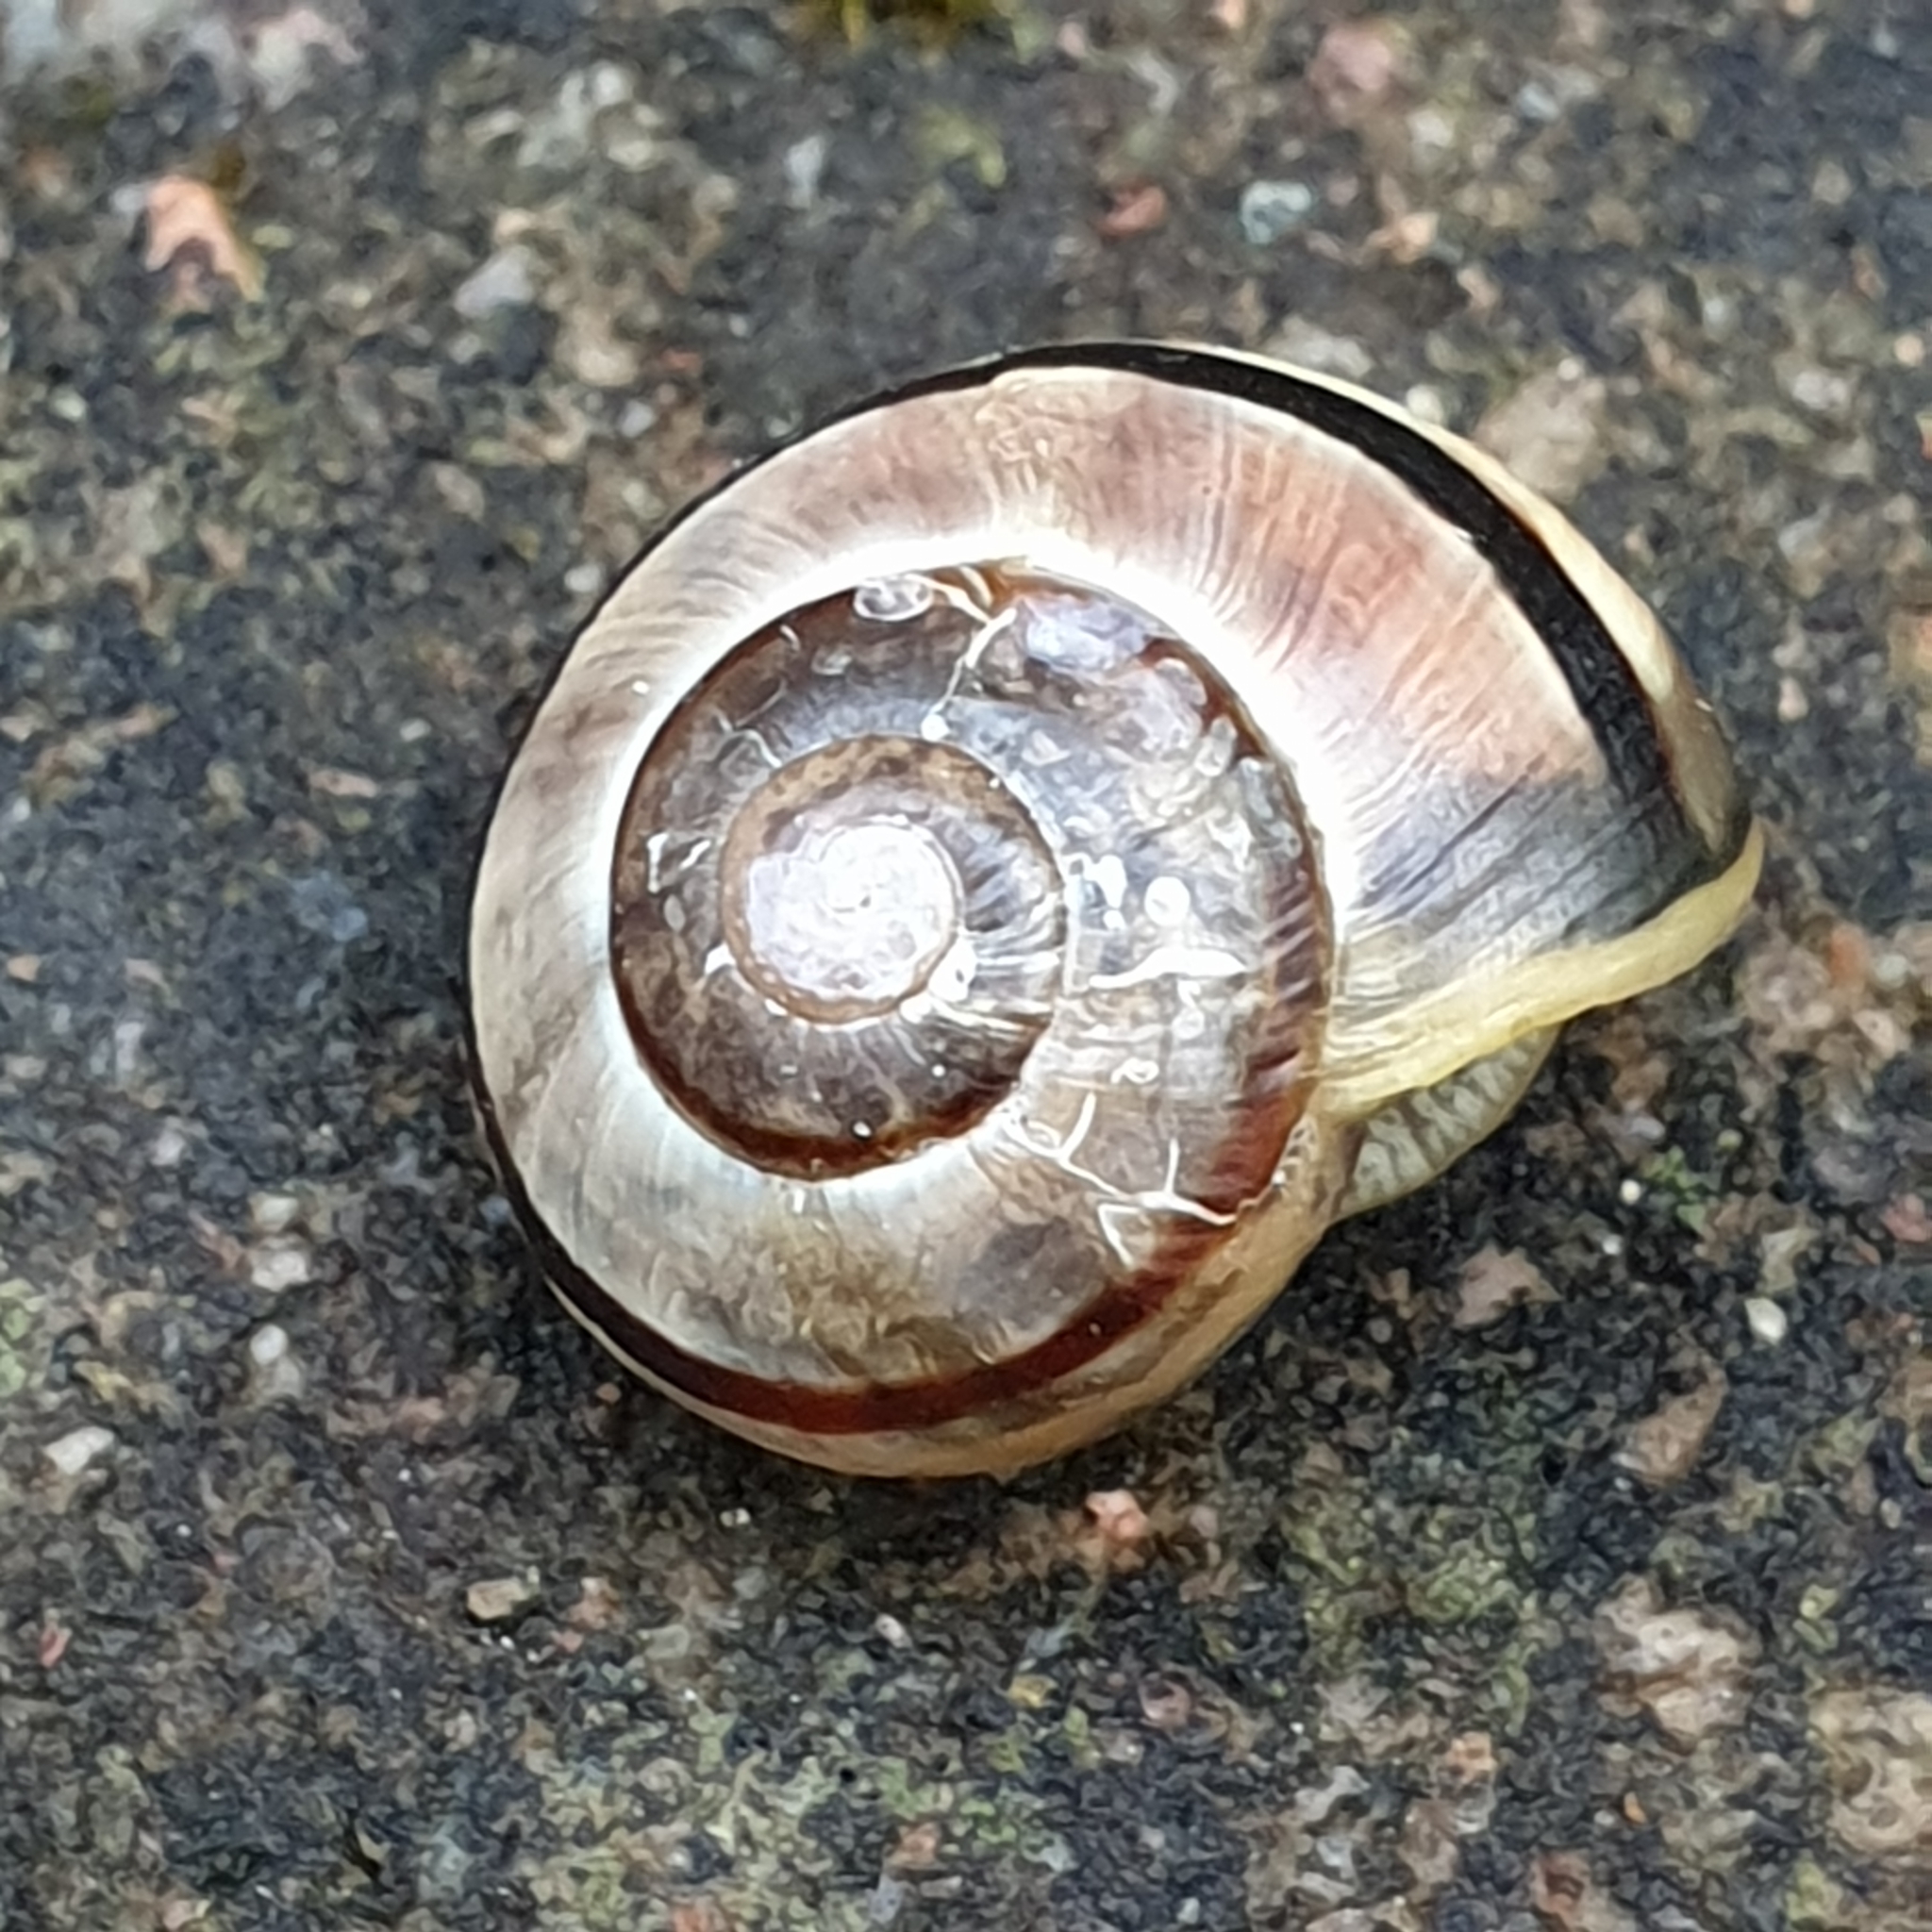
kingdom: Animalia
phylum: Mollusca
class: Gastropoda
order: Stylommatophora
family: Helicidae
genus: Cepaea
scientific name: Cepaea nemoralis
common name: Grovesnail
